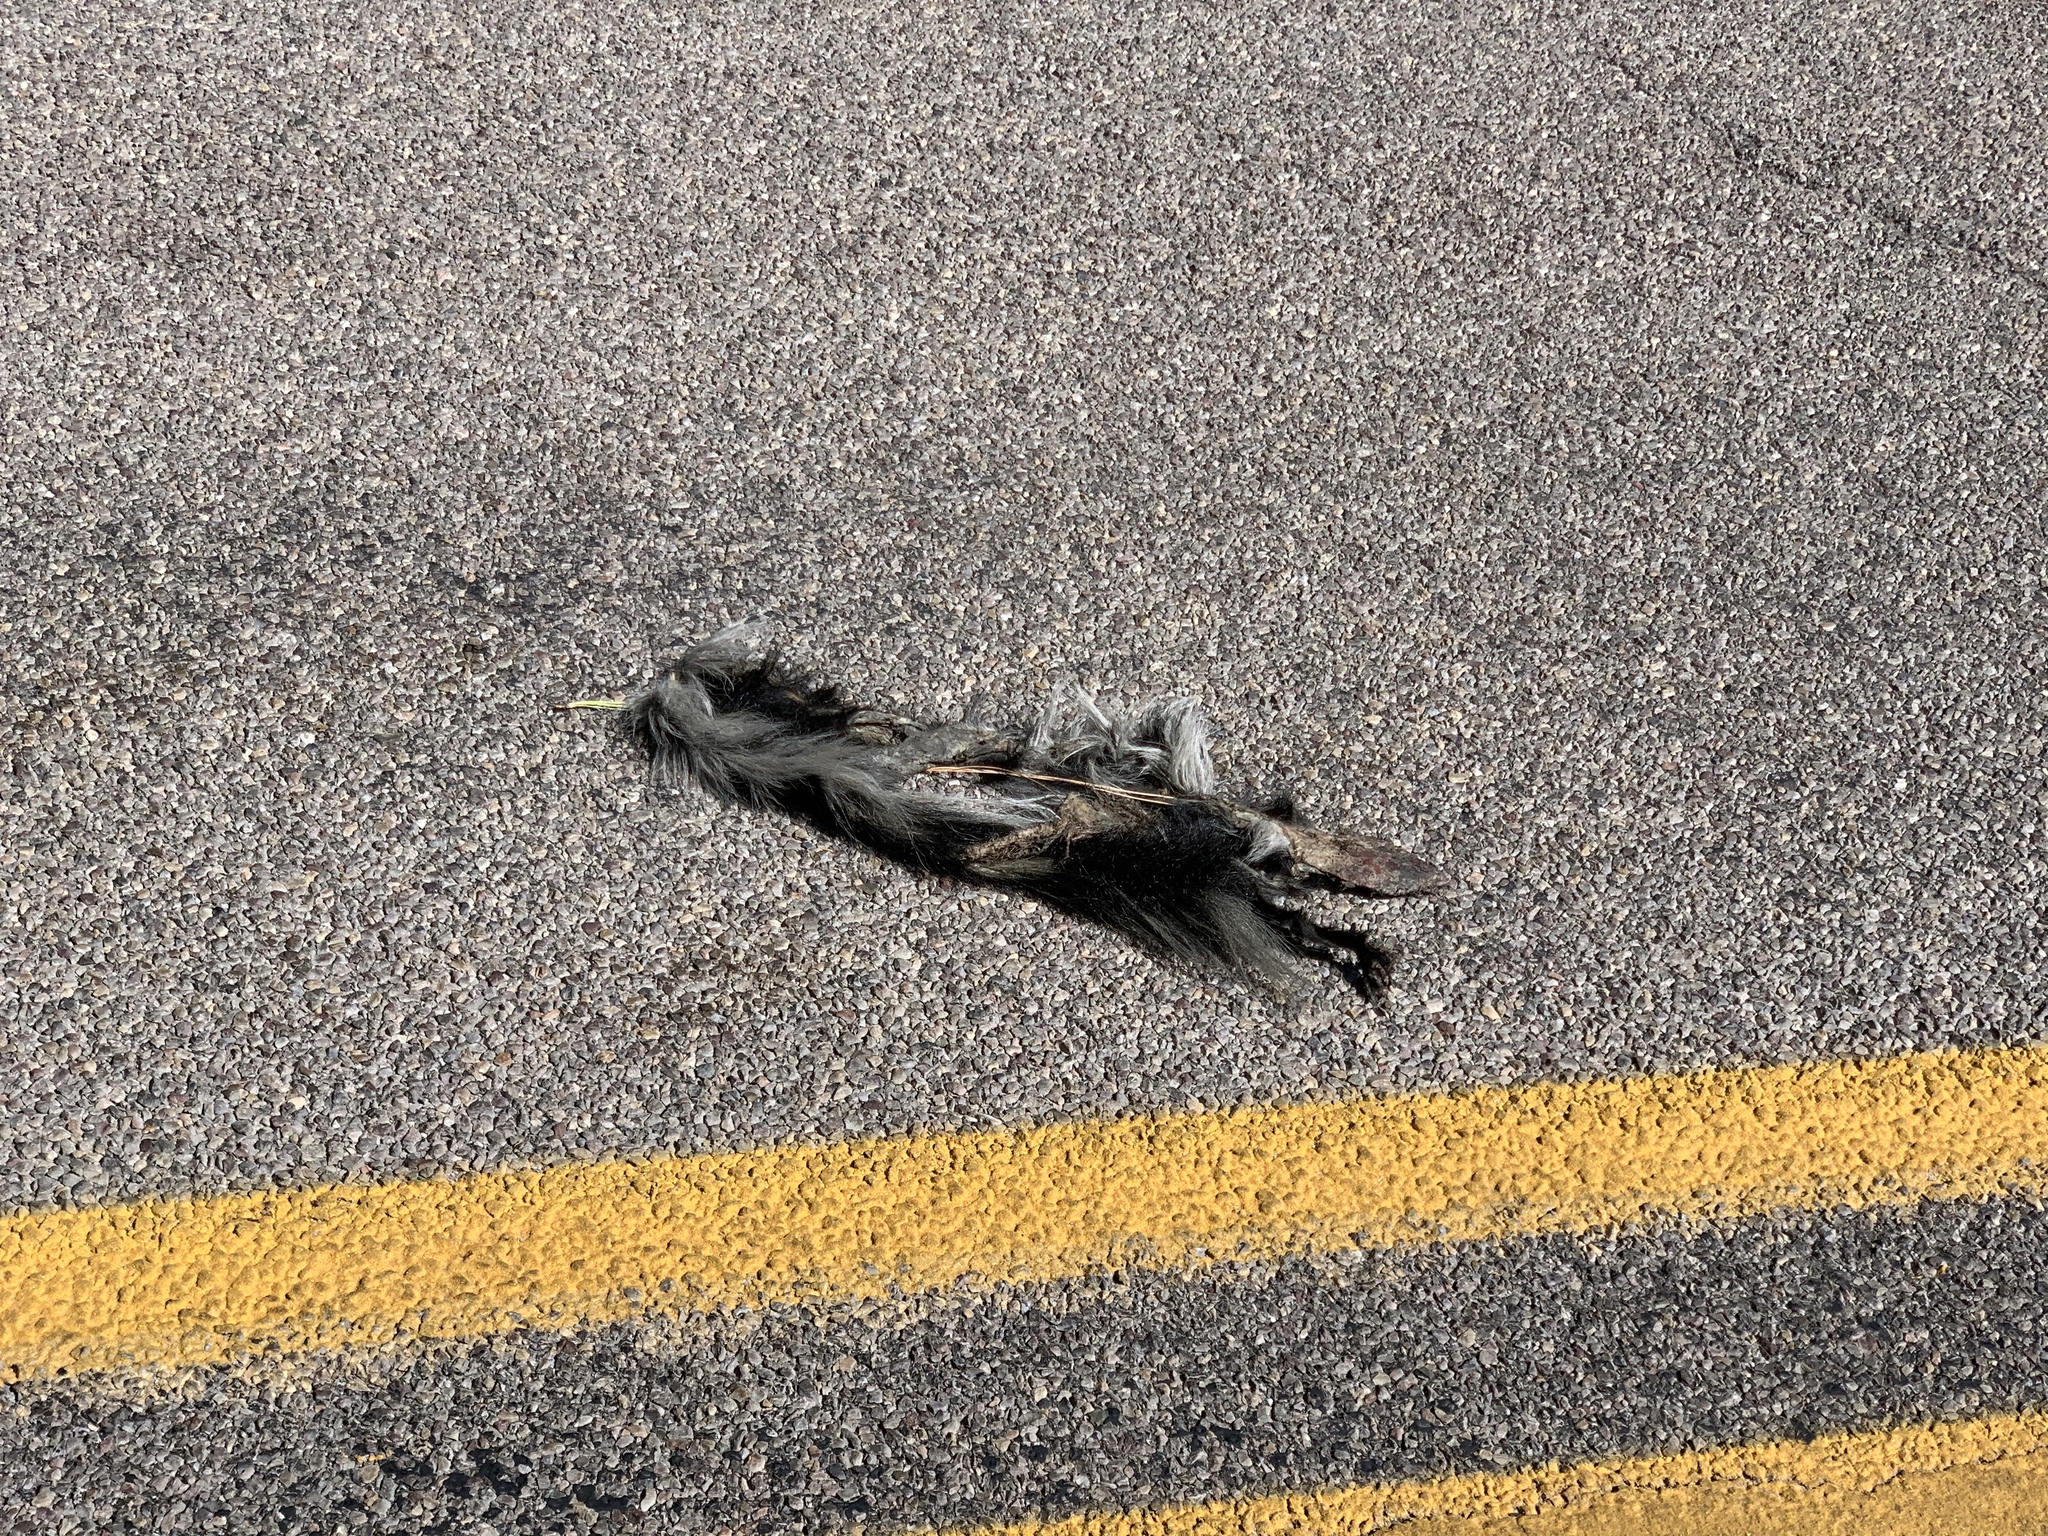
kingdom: Animalia
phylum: Chordata
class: Mammalia
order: Carnivora
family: Mephitidae
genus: Mephitis
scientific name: Mephitis mephitis
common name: Striped skunk
